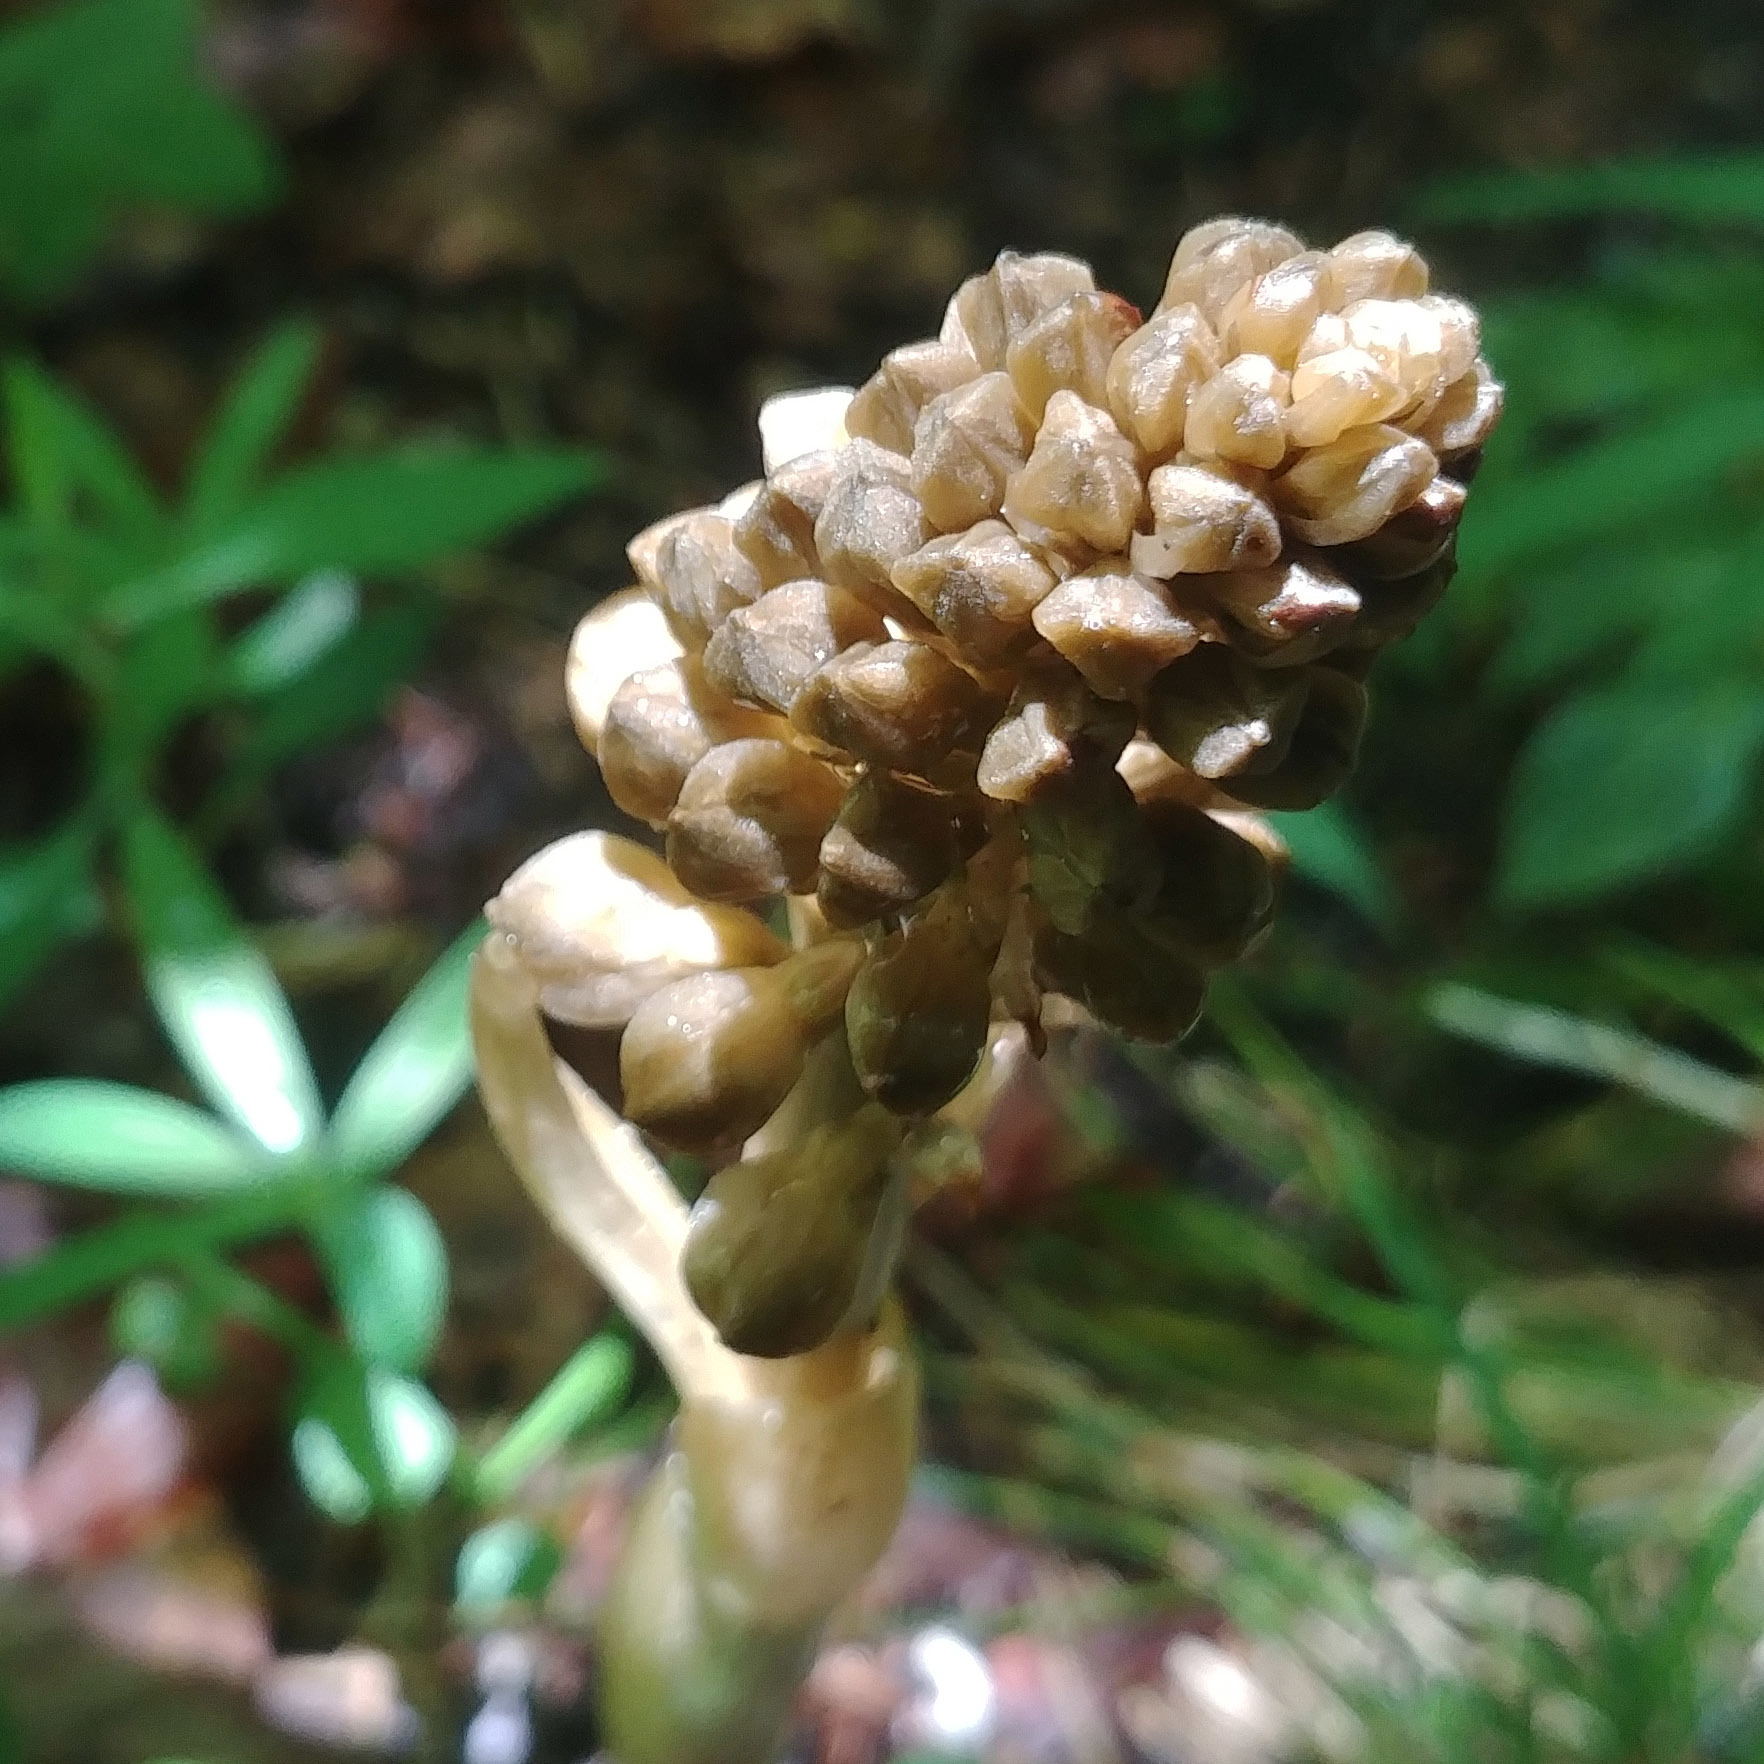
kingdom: Plantae
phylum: Tracheophyta
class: Liliopsida
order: Asparagales
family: Orchidaceae
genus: Neottia
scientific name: Neottia nidus-avis
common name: Bird's-nest orchid
